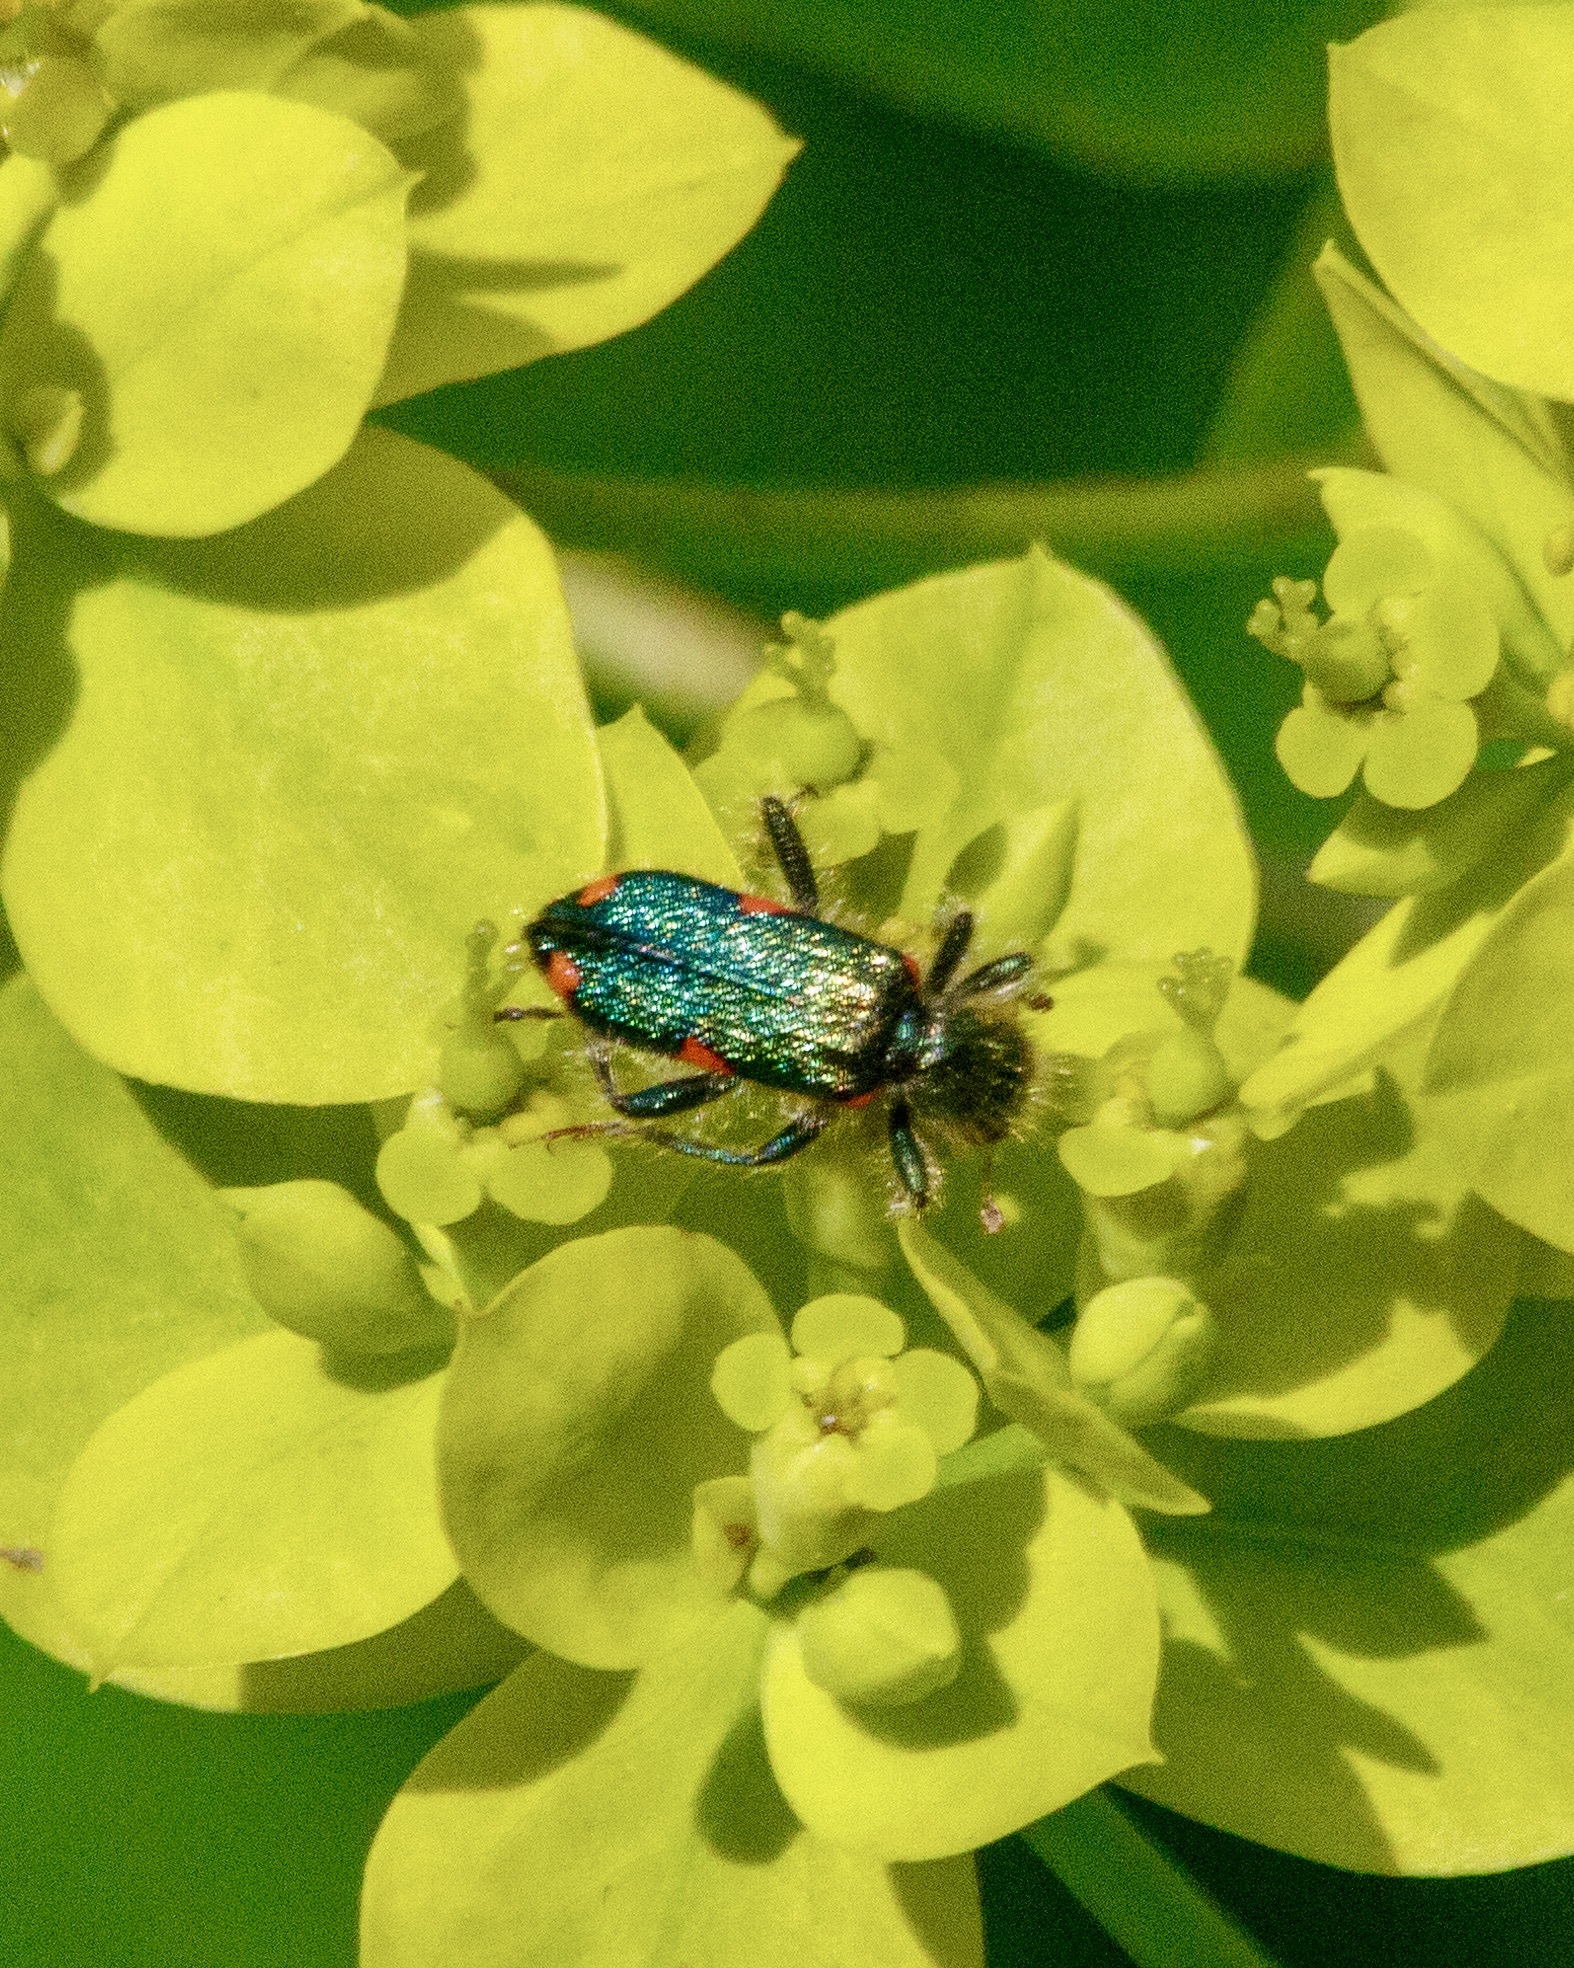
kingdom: Animalia
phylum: Arthropoda
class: Insecta
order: Coleoptera
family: Cleridae
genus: Trichodes
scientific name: Trichodes
